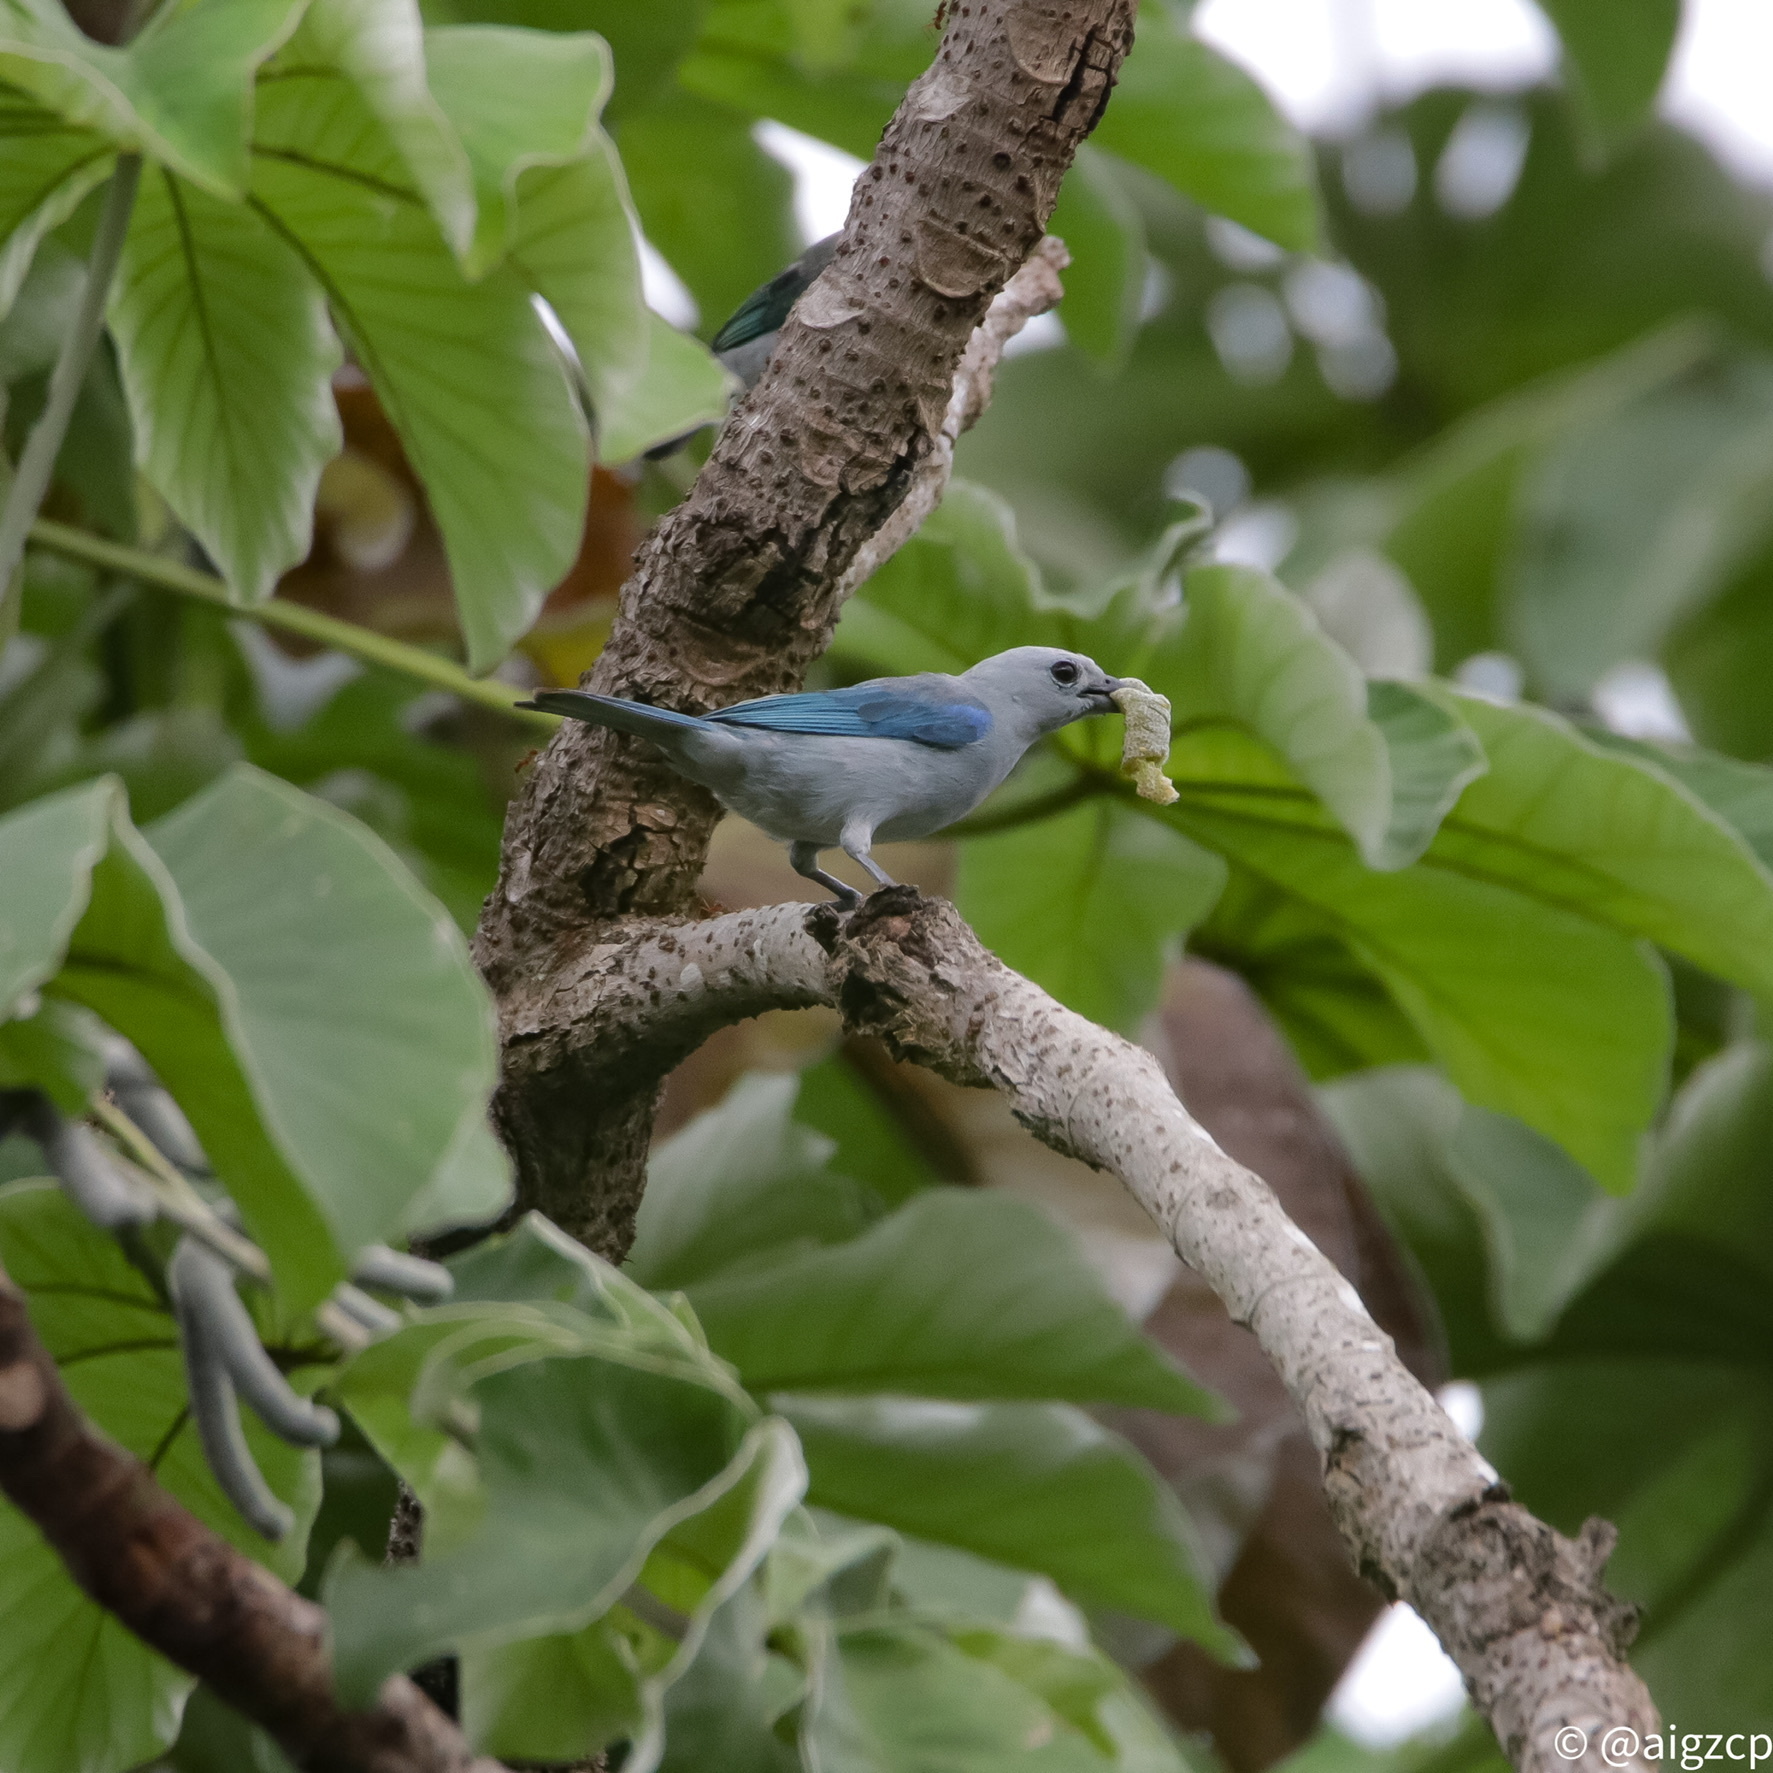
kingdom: Animalia
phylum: Chordata
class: Aves
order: Passeriformes
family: Thraupidae
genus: Thraupis
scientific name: Thraupis episcopus
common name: Blue-grey tanager
